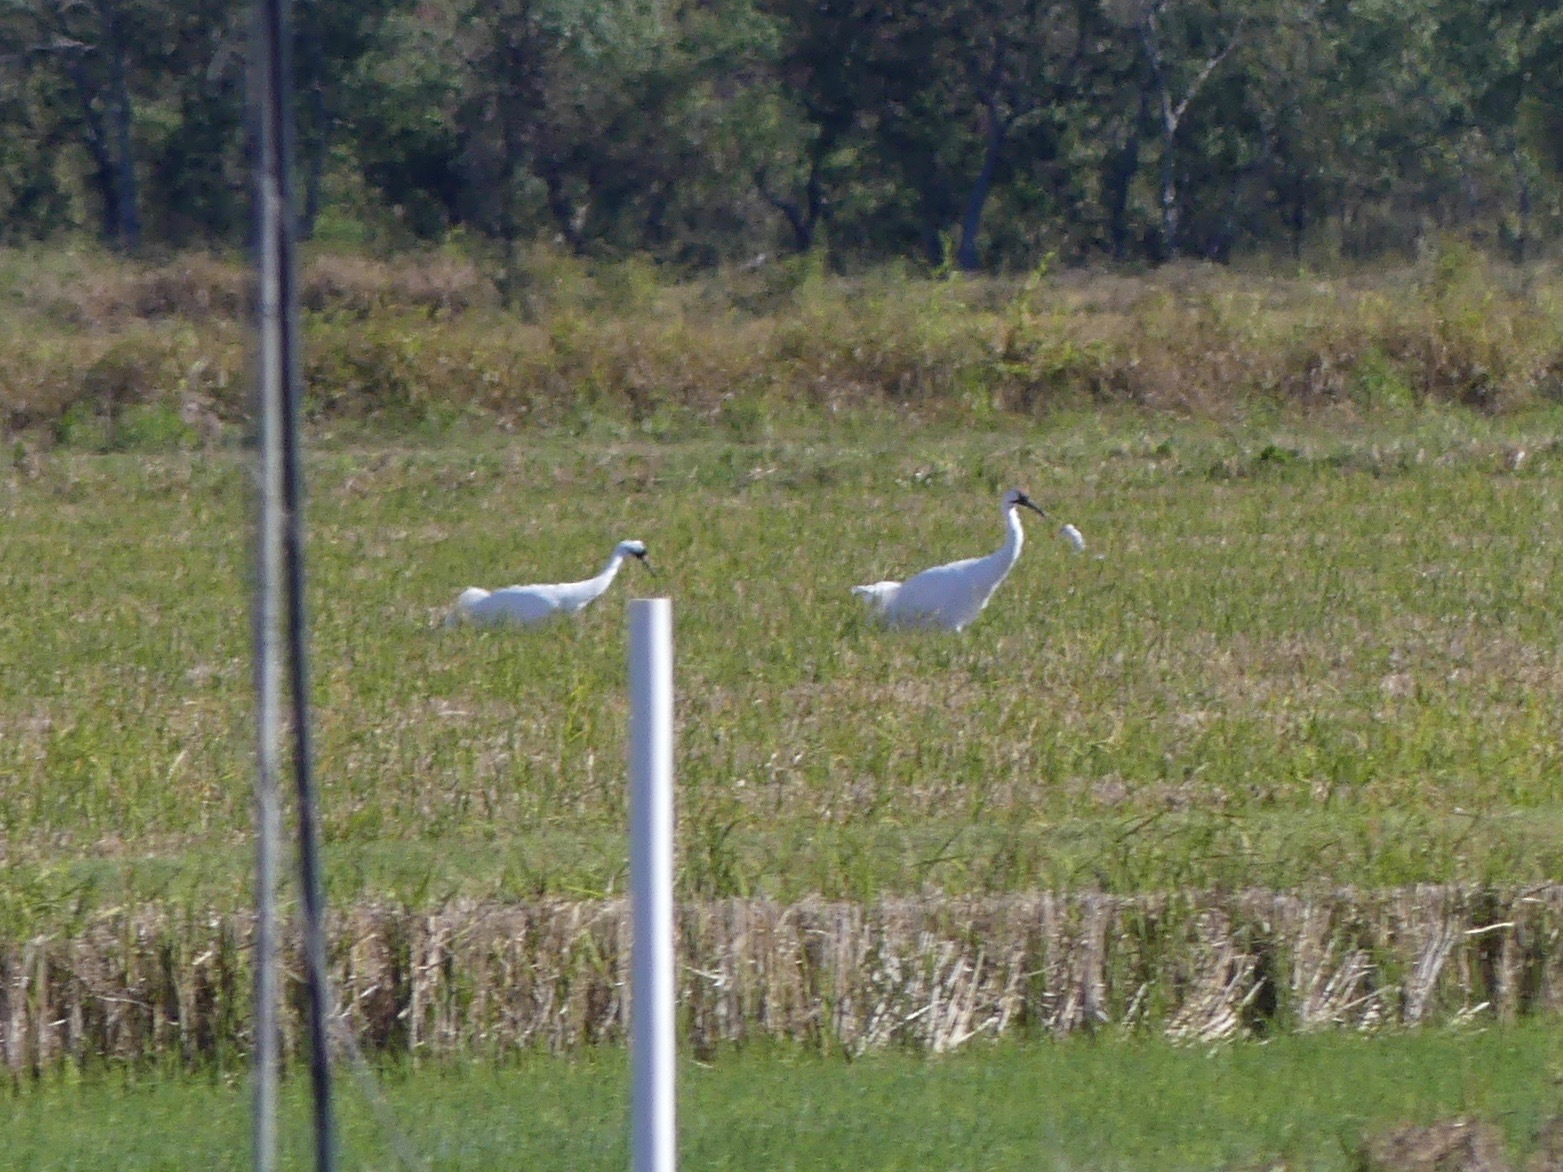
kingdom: Animalia
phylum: Chordata
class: Aves
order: Gruiformes
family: Gruidae
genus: Grus
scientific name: Grus americana
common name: Whooping crane
